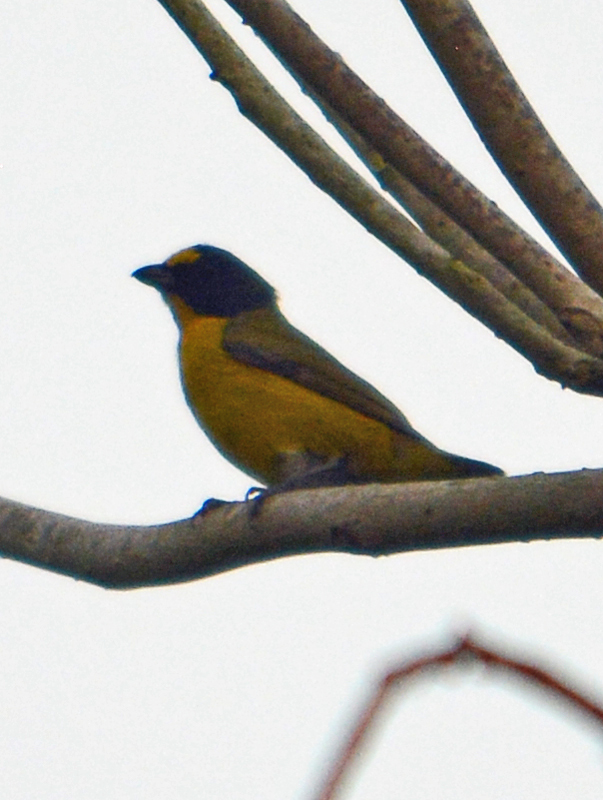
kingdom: Animalia
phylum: Chordata
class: Aves
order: Passeriformes
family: Fringillidae
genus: Euphonia
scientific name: Euphonia hirundinacea
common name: Yellow-throated euphonia
